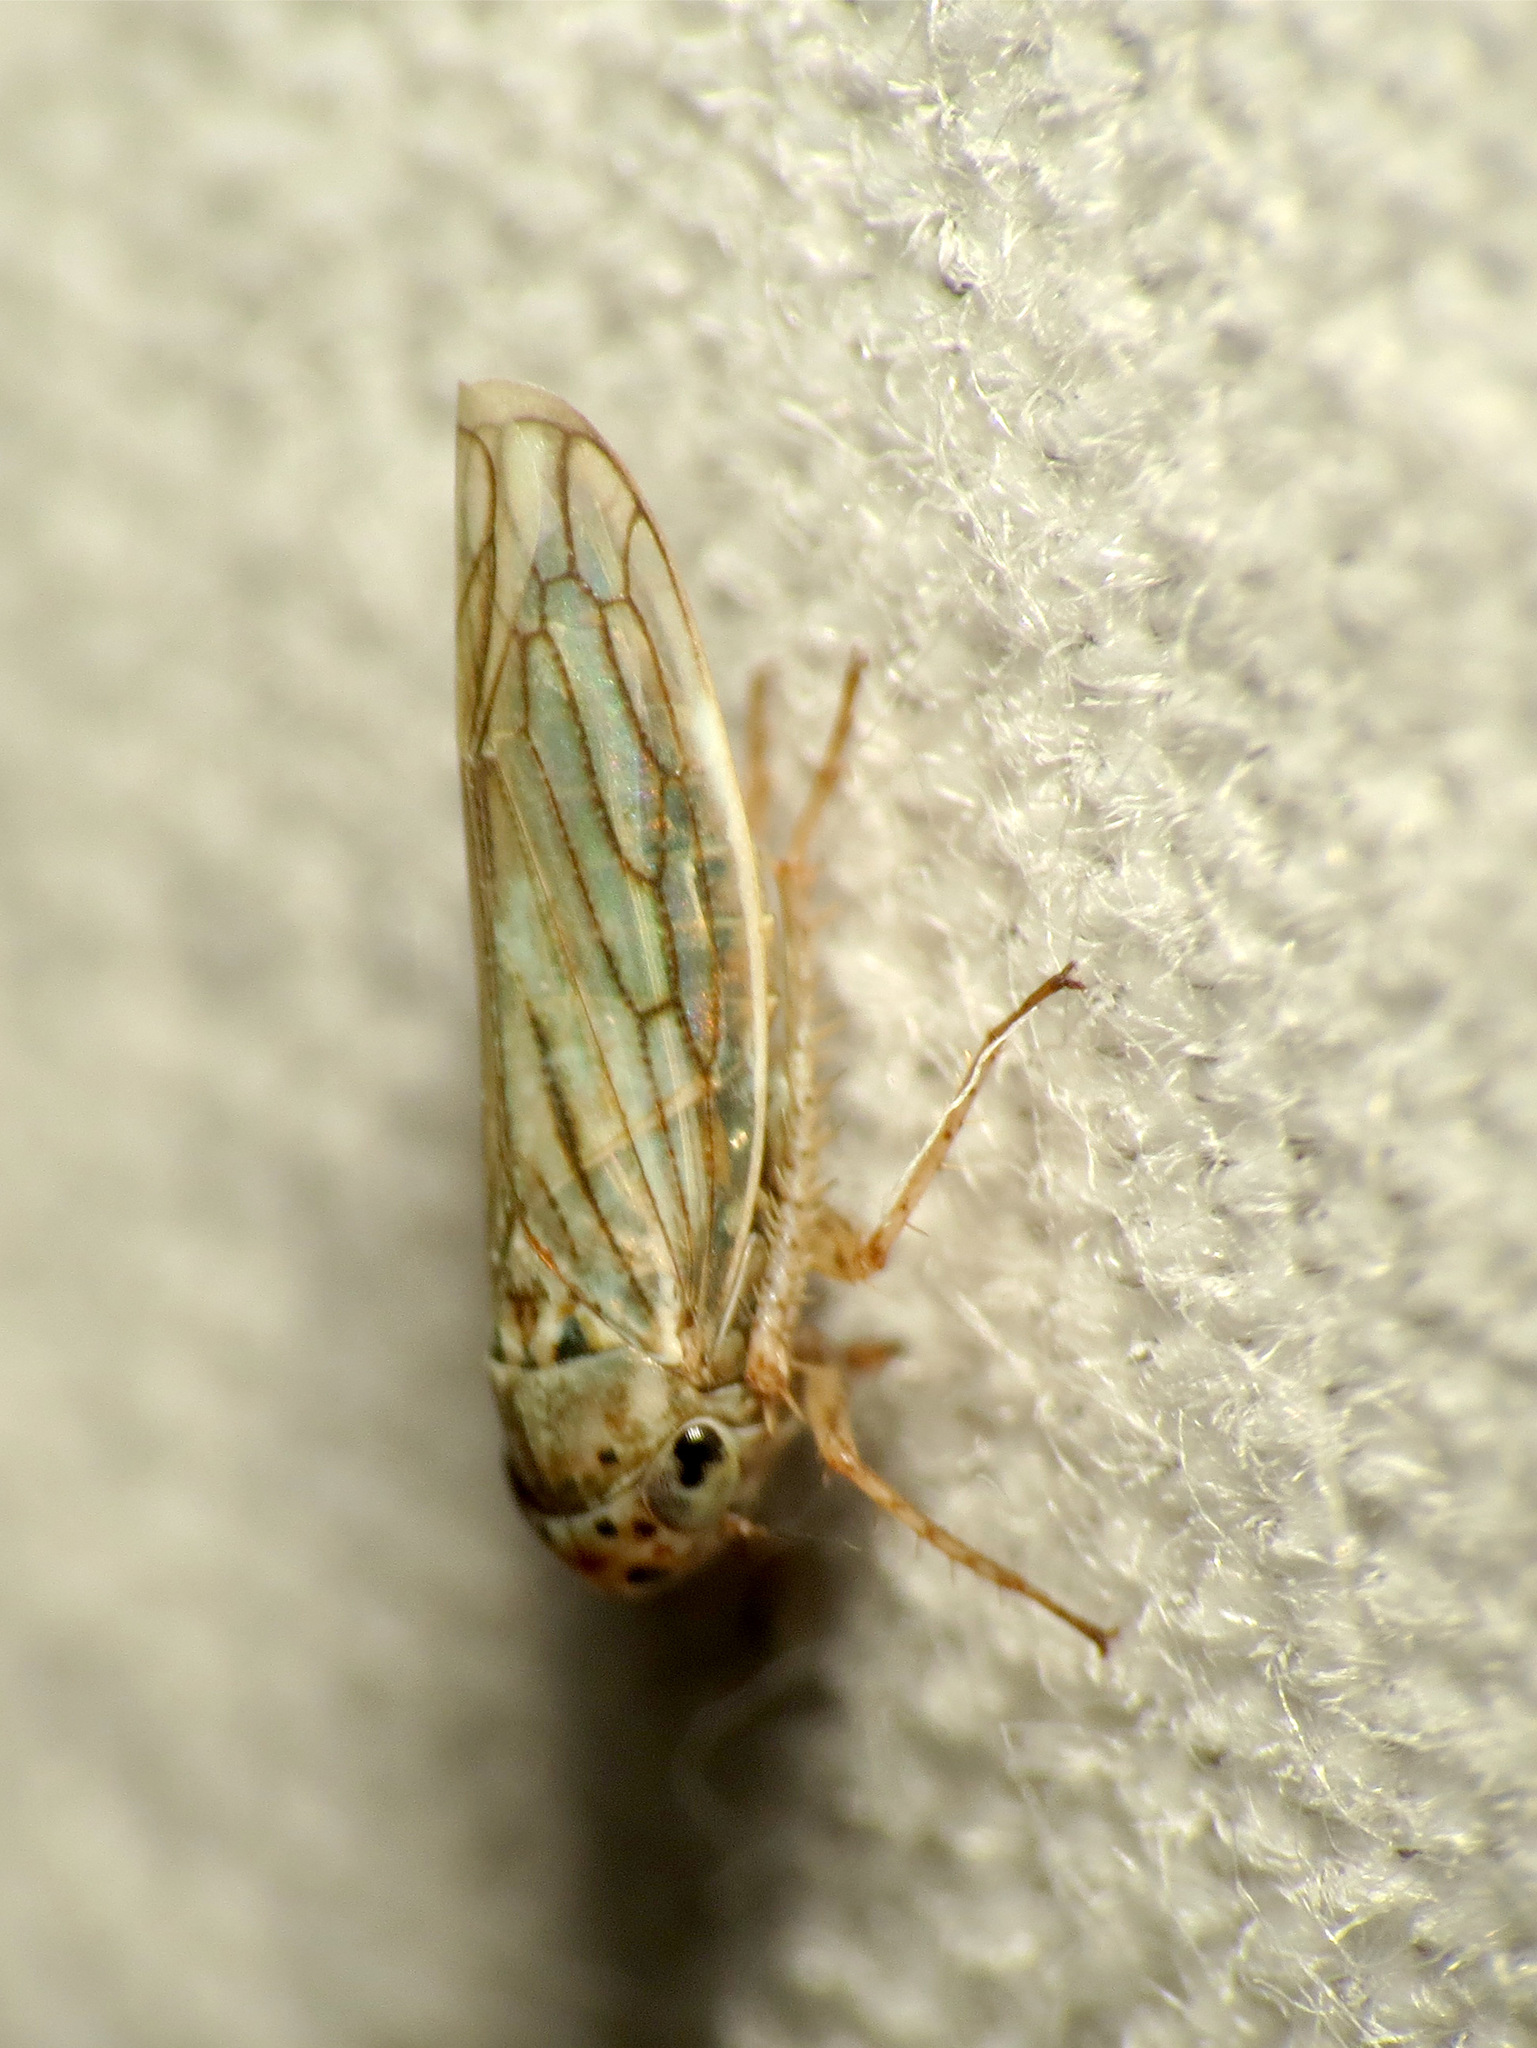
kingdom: Animalia
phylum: Arthropoda
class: Insecta
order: Hemiptera
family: Cicadellidae
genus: Exitianus
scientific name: Exitianus exitiosus
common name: Gray lawn leafhopper
